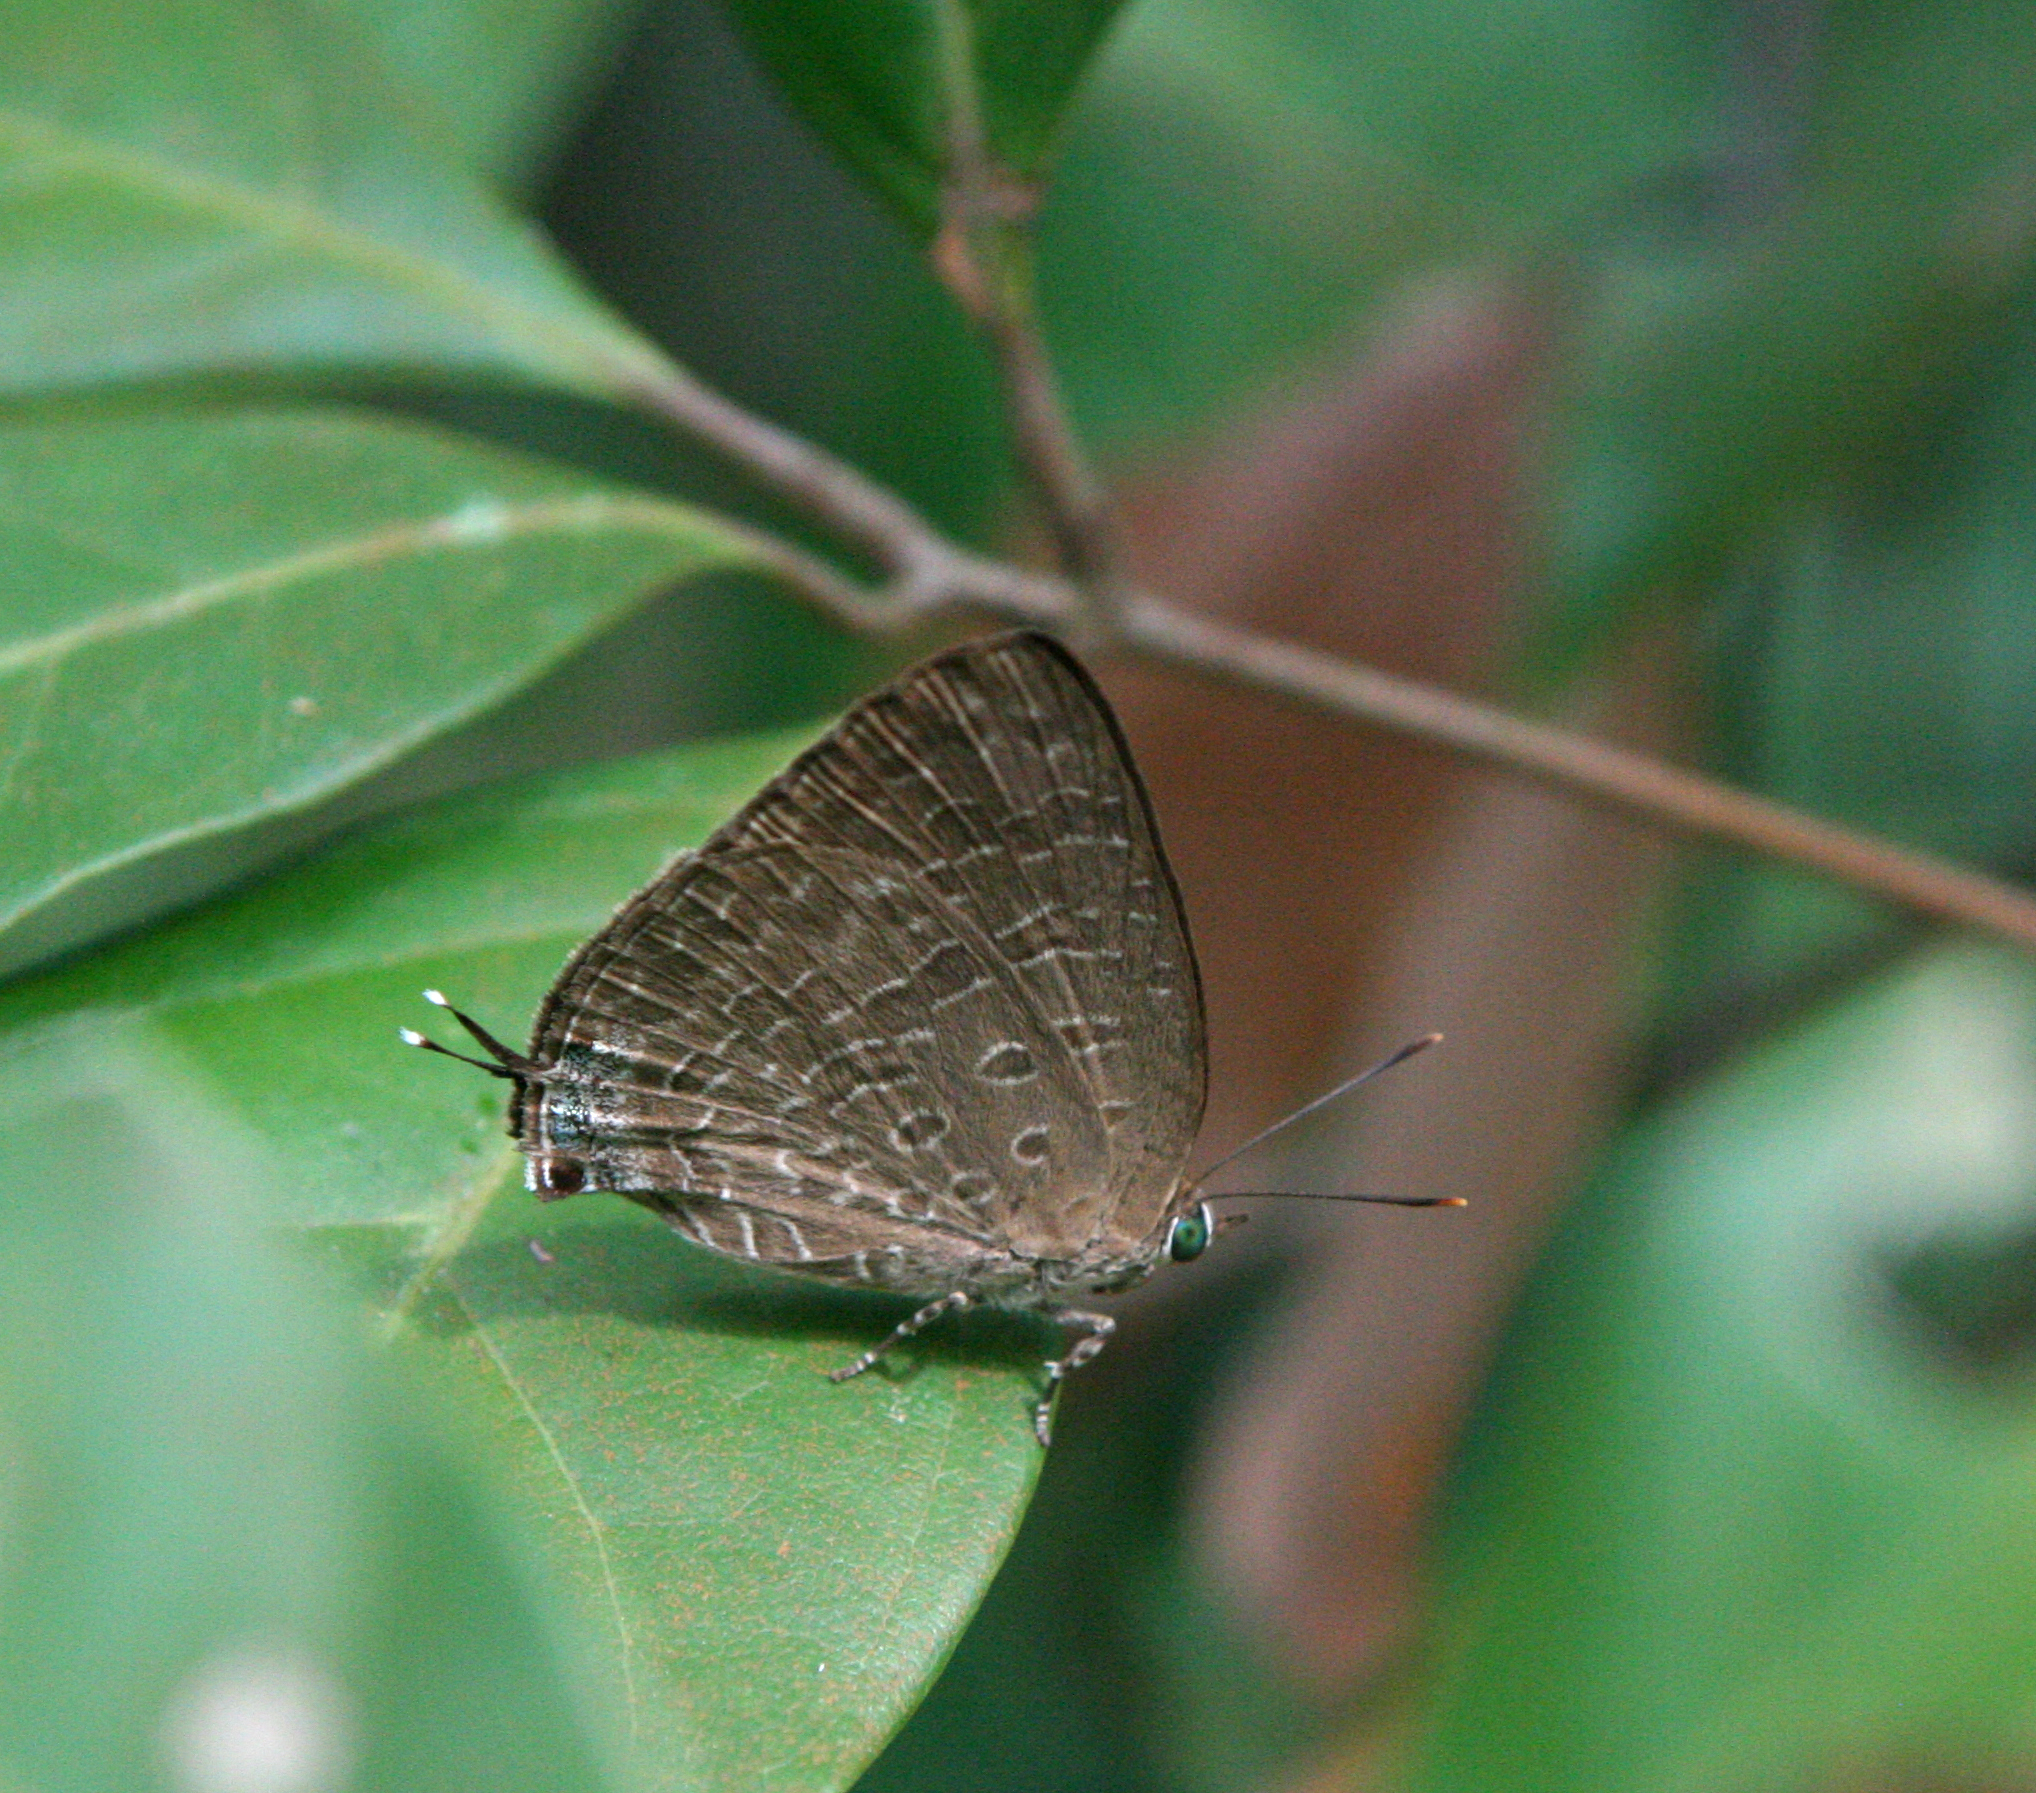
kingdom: Animalia
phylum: Arthropoda
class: Insecta
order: Lepidoptera
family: Lycaenidae
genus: Arhopala
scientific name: Arhopala aida
